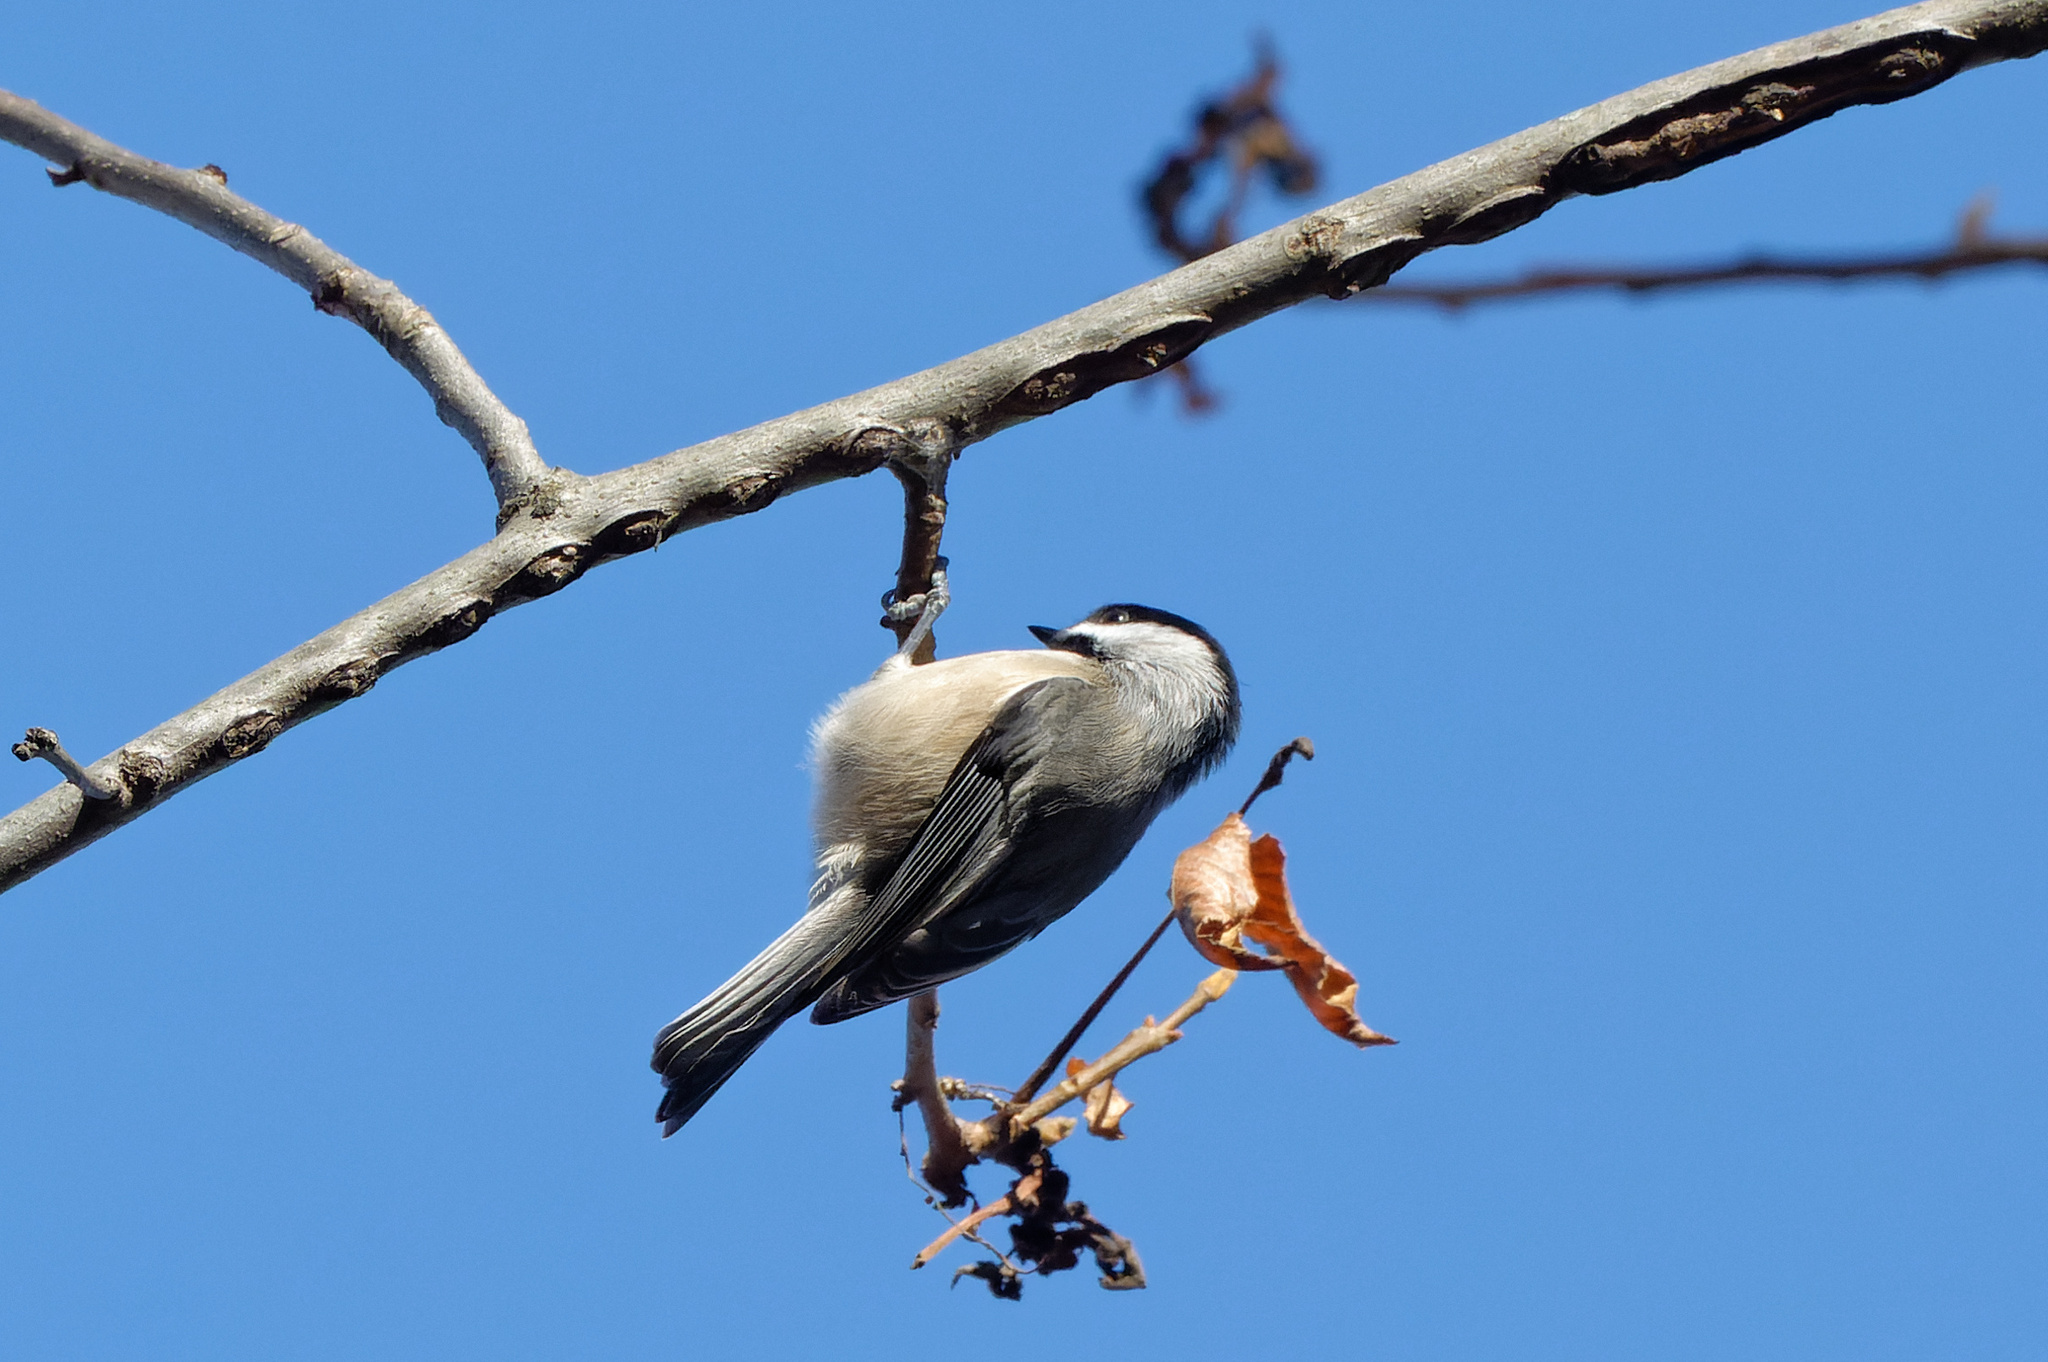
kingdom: Animalia
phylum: Chordata
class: Aves
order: Passeriformes
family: Paridae
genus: Poecile
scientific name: Poecile carolinensis
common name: Carolina chickadee
